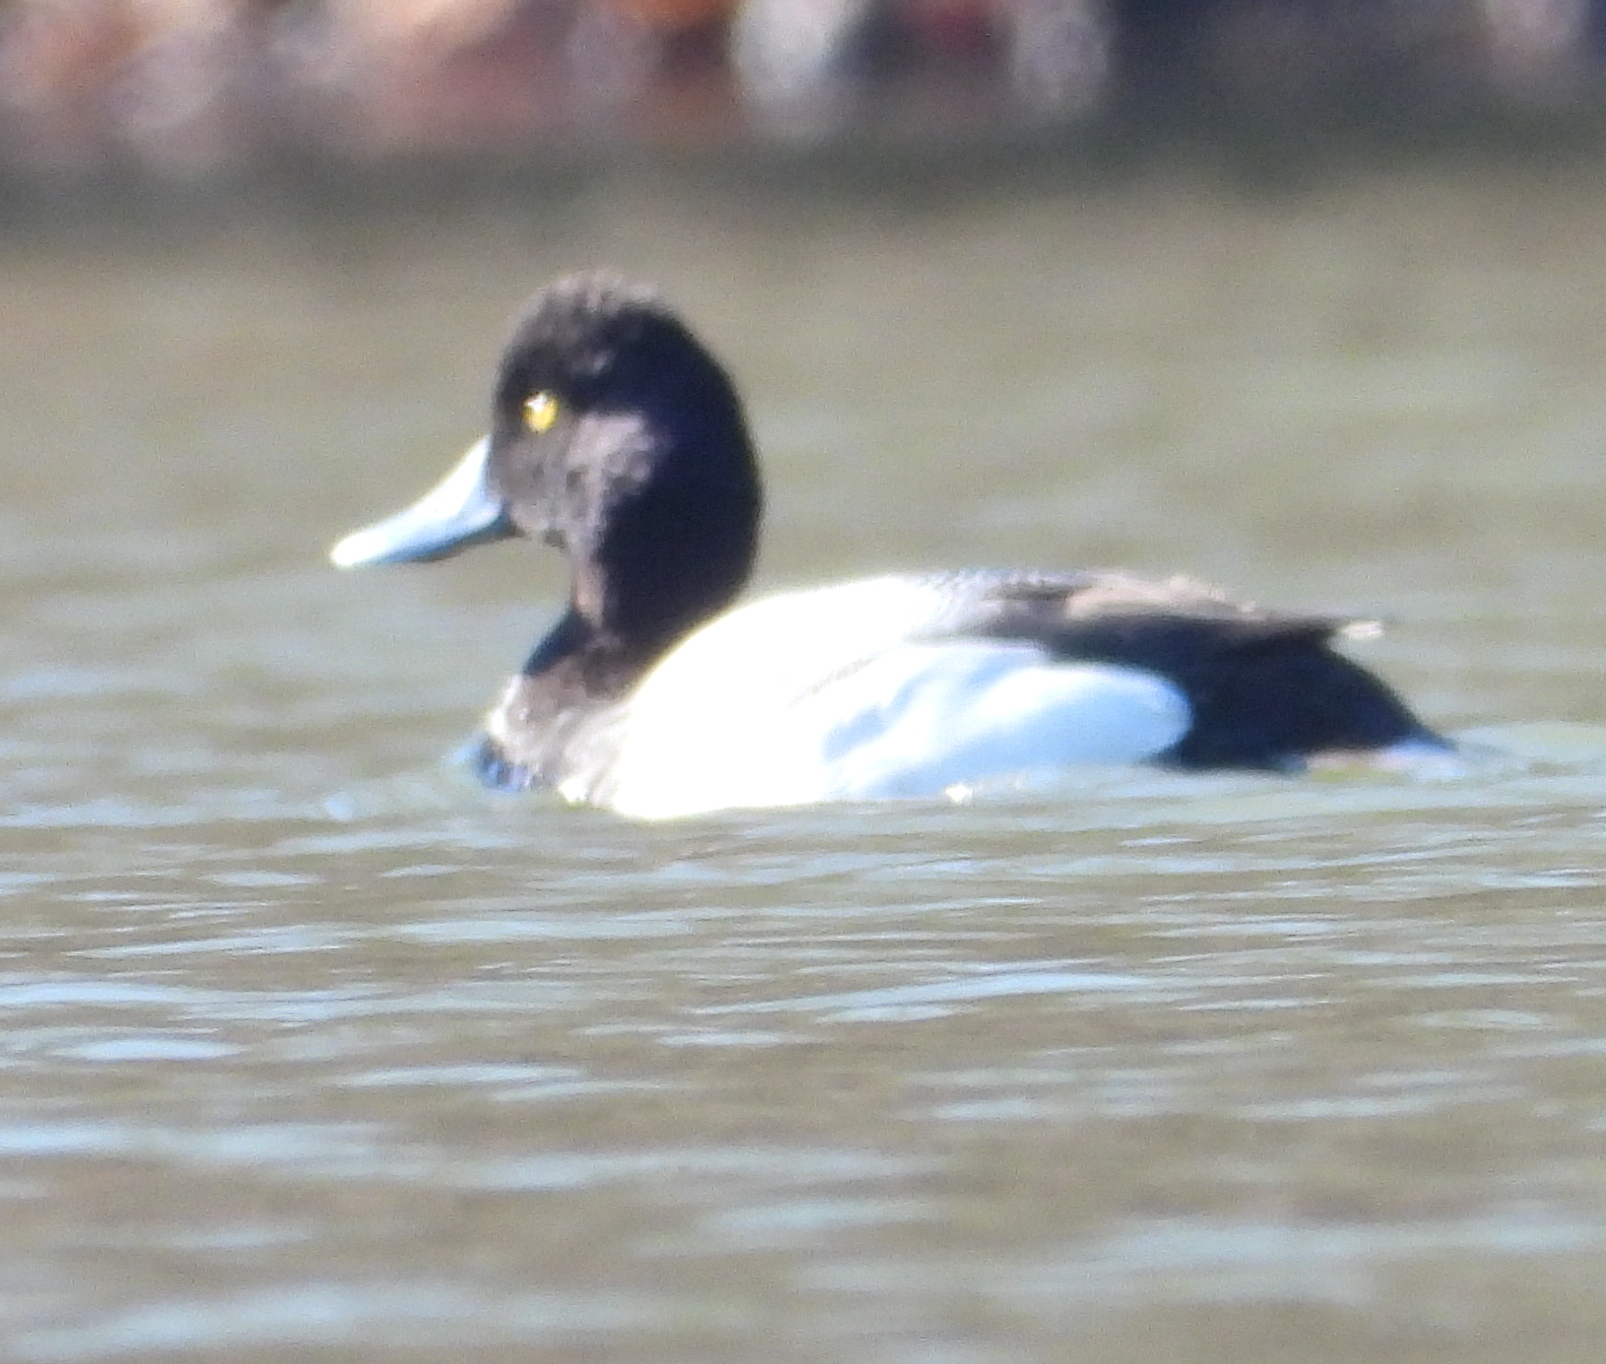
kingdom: Animalia
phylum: Chordata
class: Aves
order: Anseriformes
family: Anatidae
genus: Aythya
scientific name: Aythya affinis
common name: Lesser scaup
